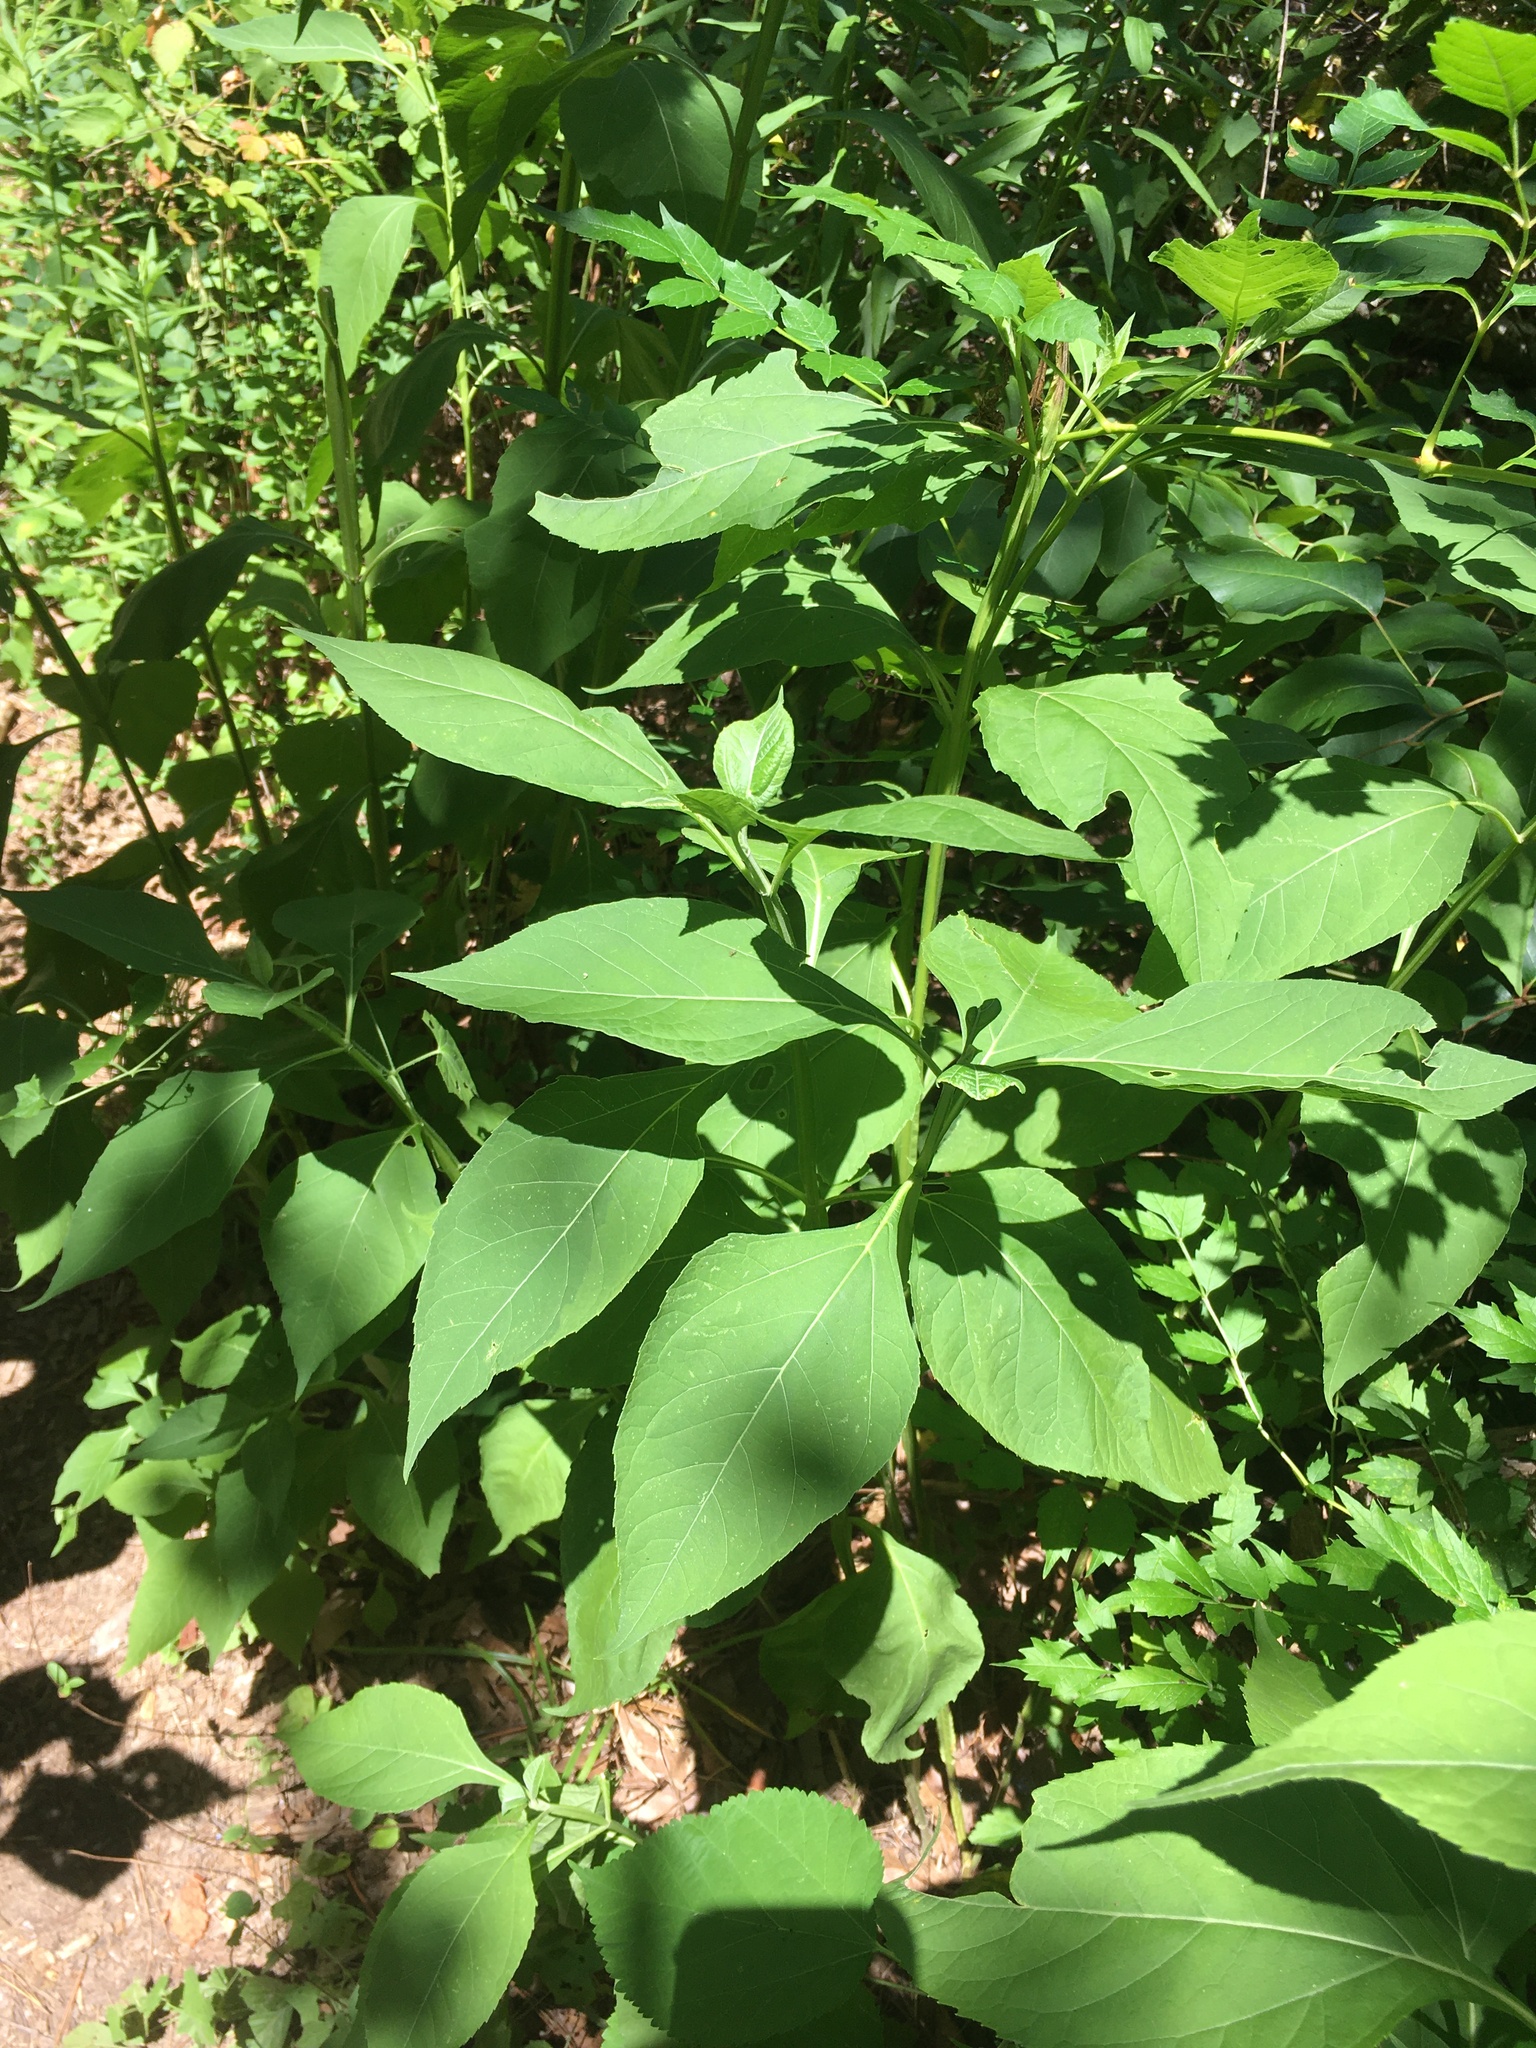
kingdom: Plantae
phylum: Tracheophyta
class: Magnoliopsida
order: Asterales
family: Asteraceae
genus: Verbesina
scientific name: Verbesina occidentalis
